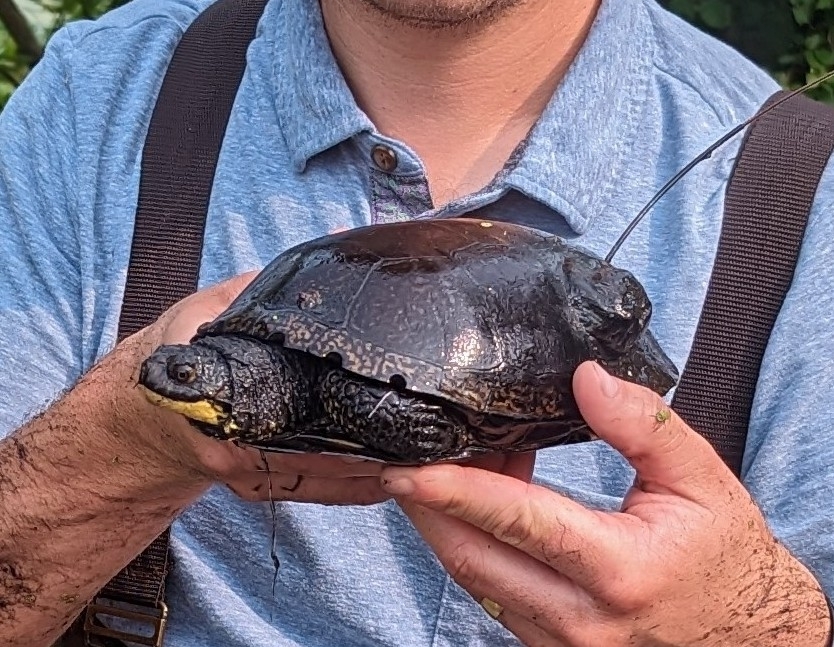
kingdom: Animalia
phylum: Chordata
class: Testudines
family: Emydidae
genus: Emys
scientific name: Emys blandingii
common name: Blanding's turtle
